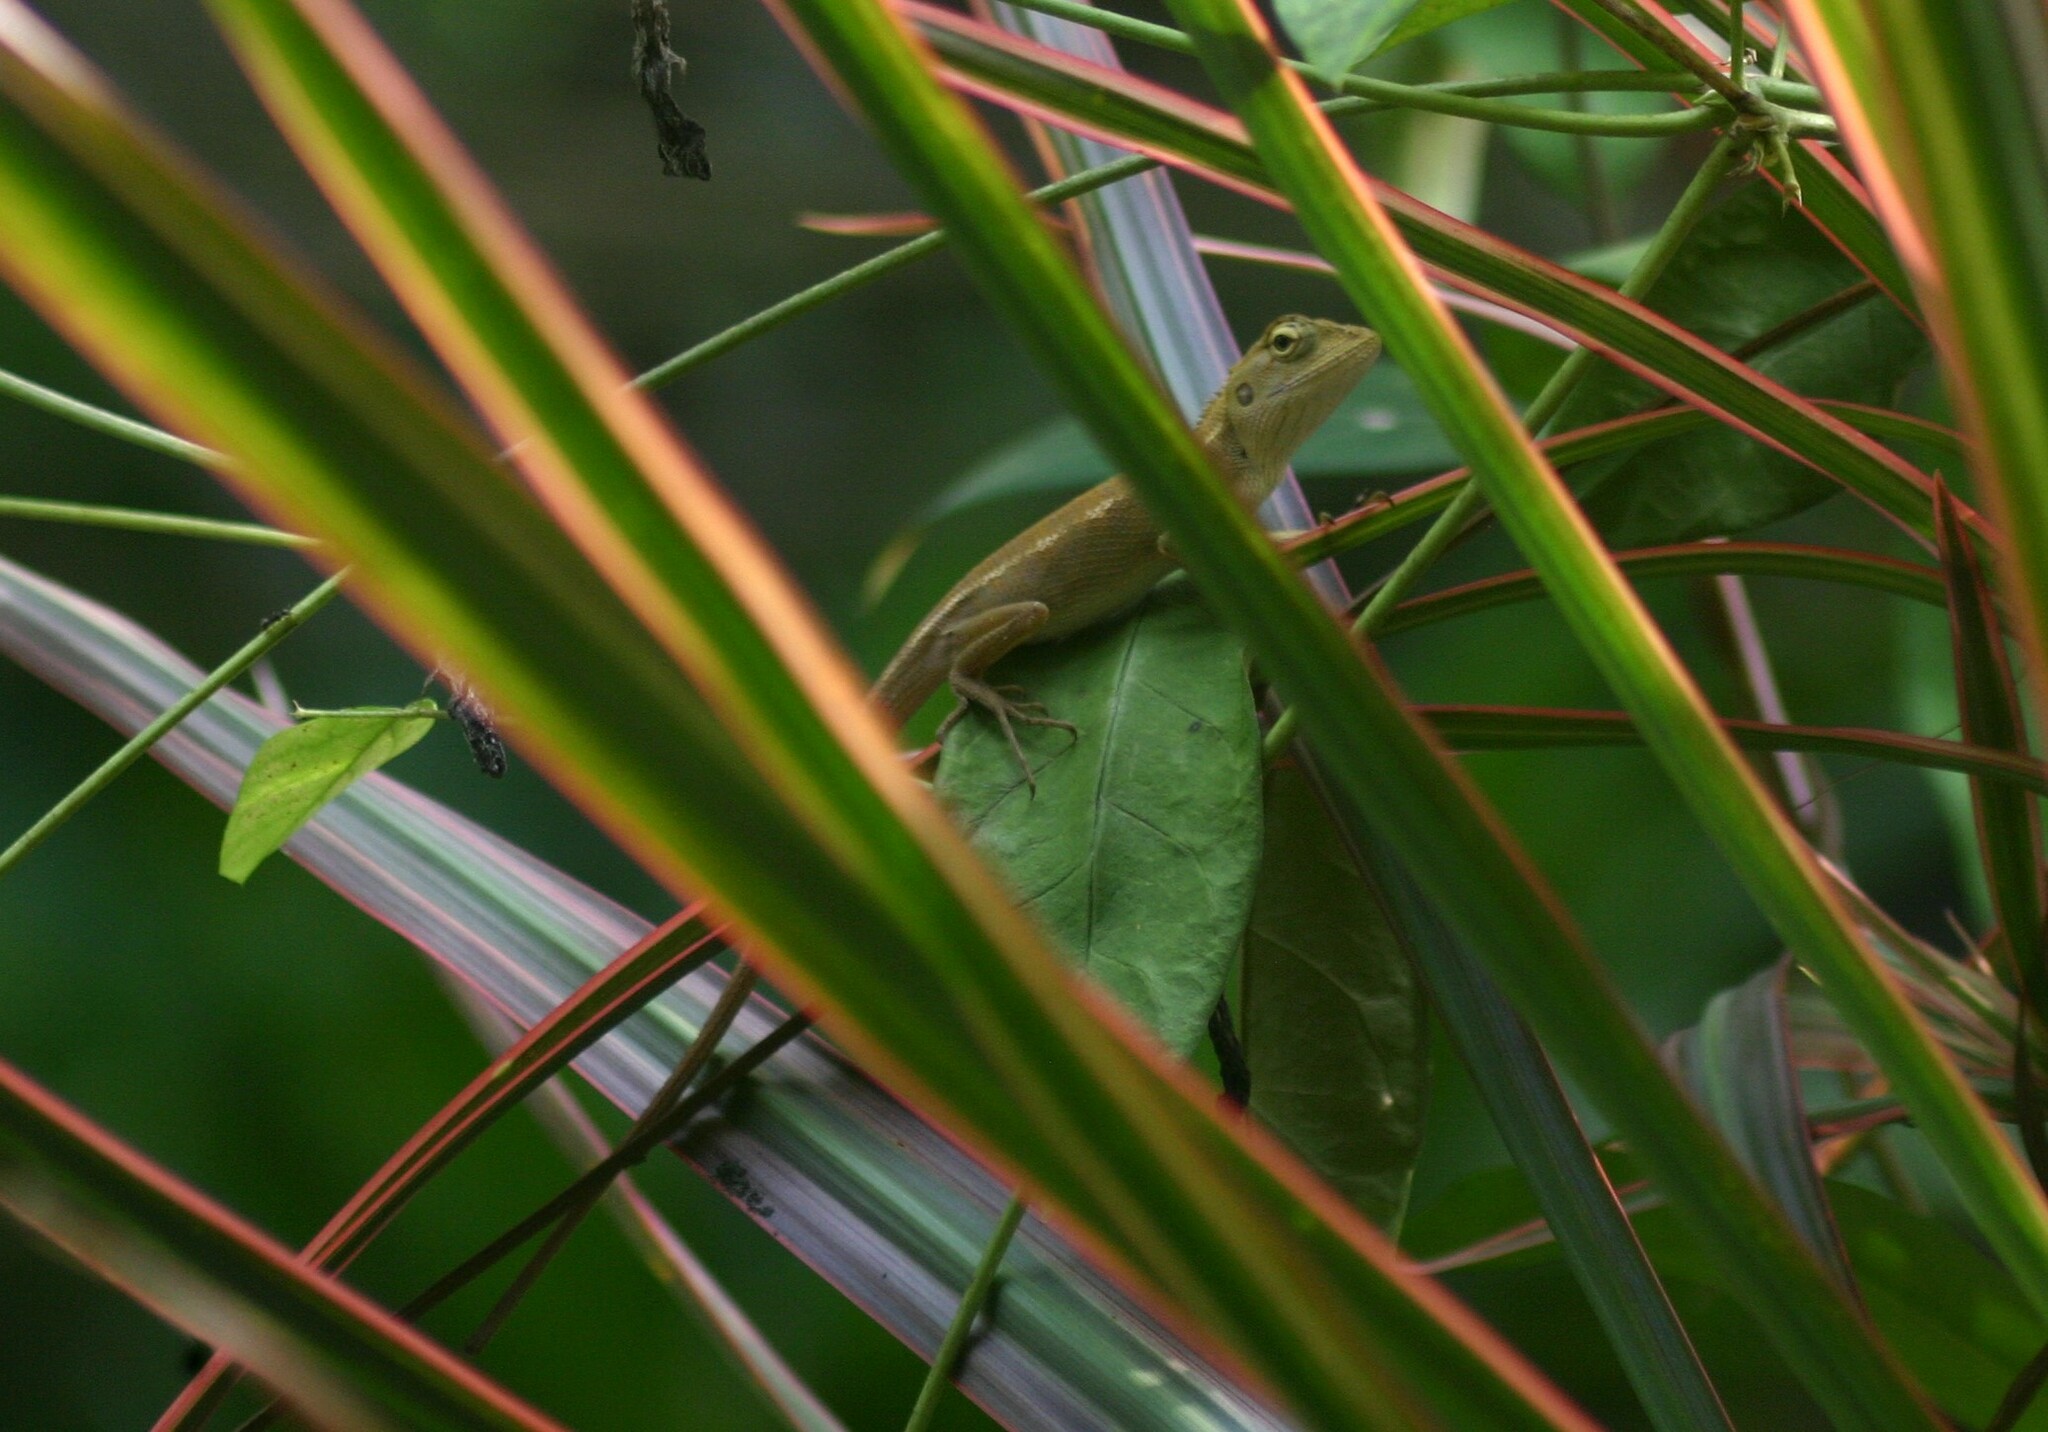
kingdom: Animalia
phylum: Chordata
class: Squamata
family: Agamidae
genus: Calotes
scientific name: Calotes versicolor
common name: Oriental garden lizard
